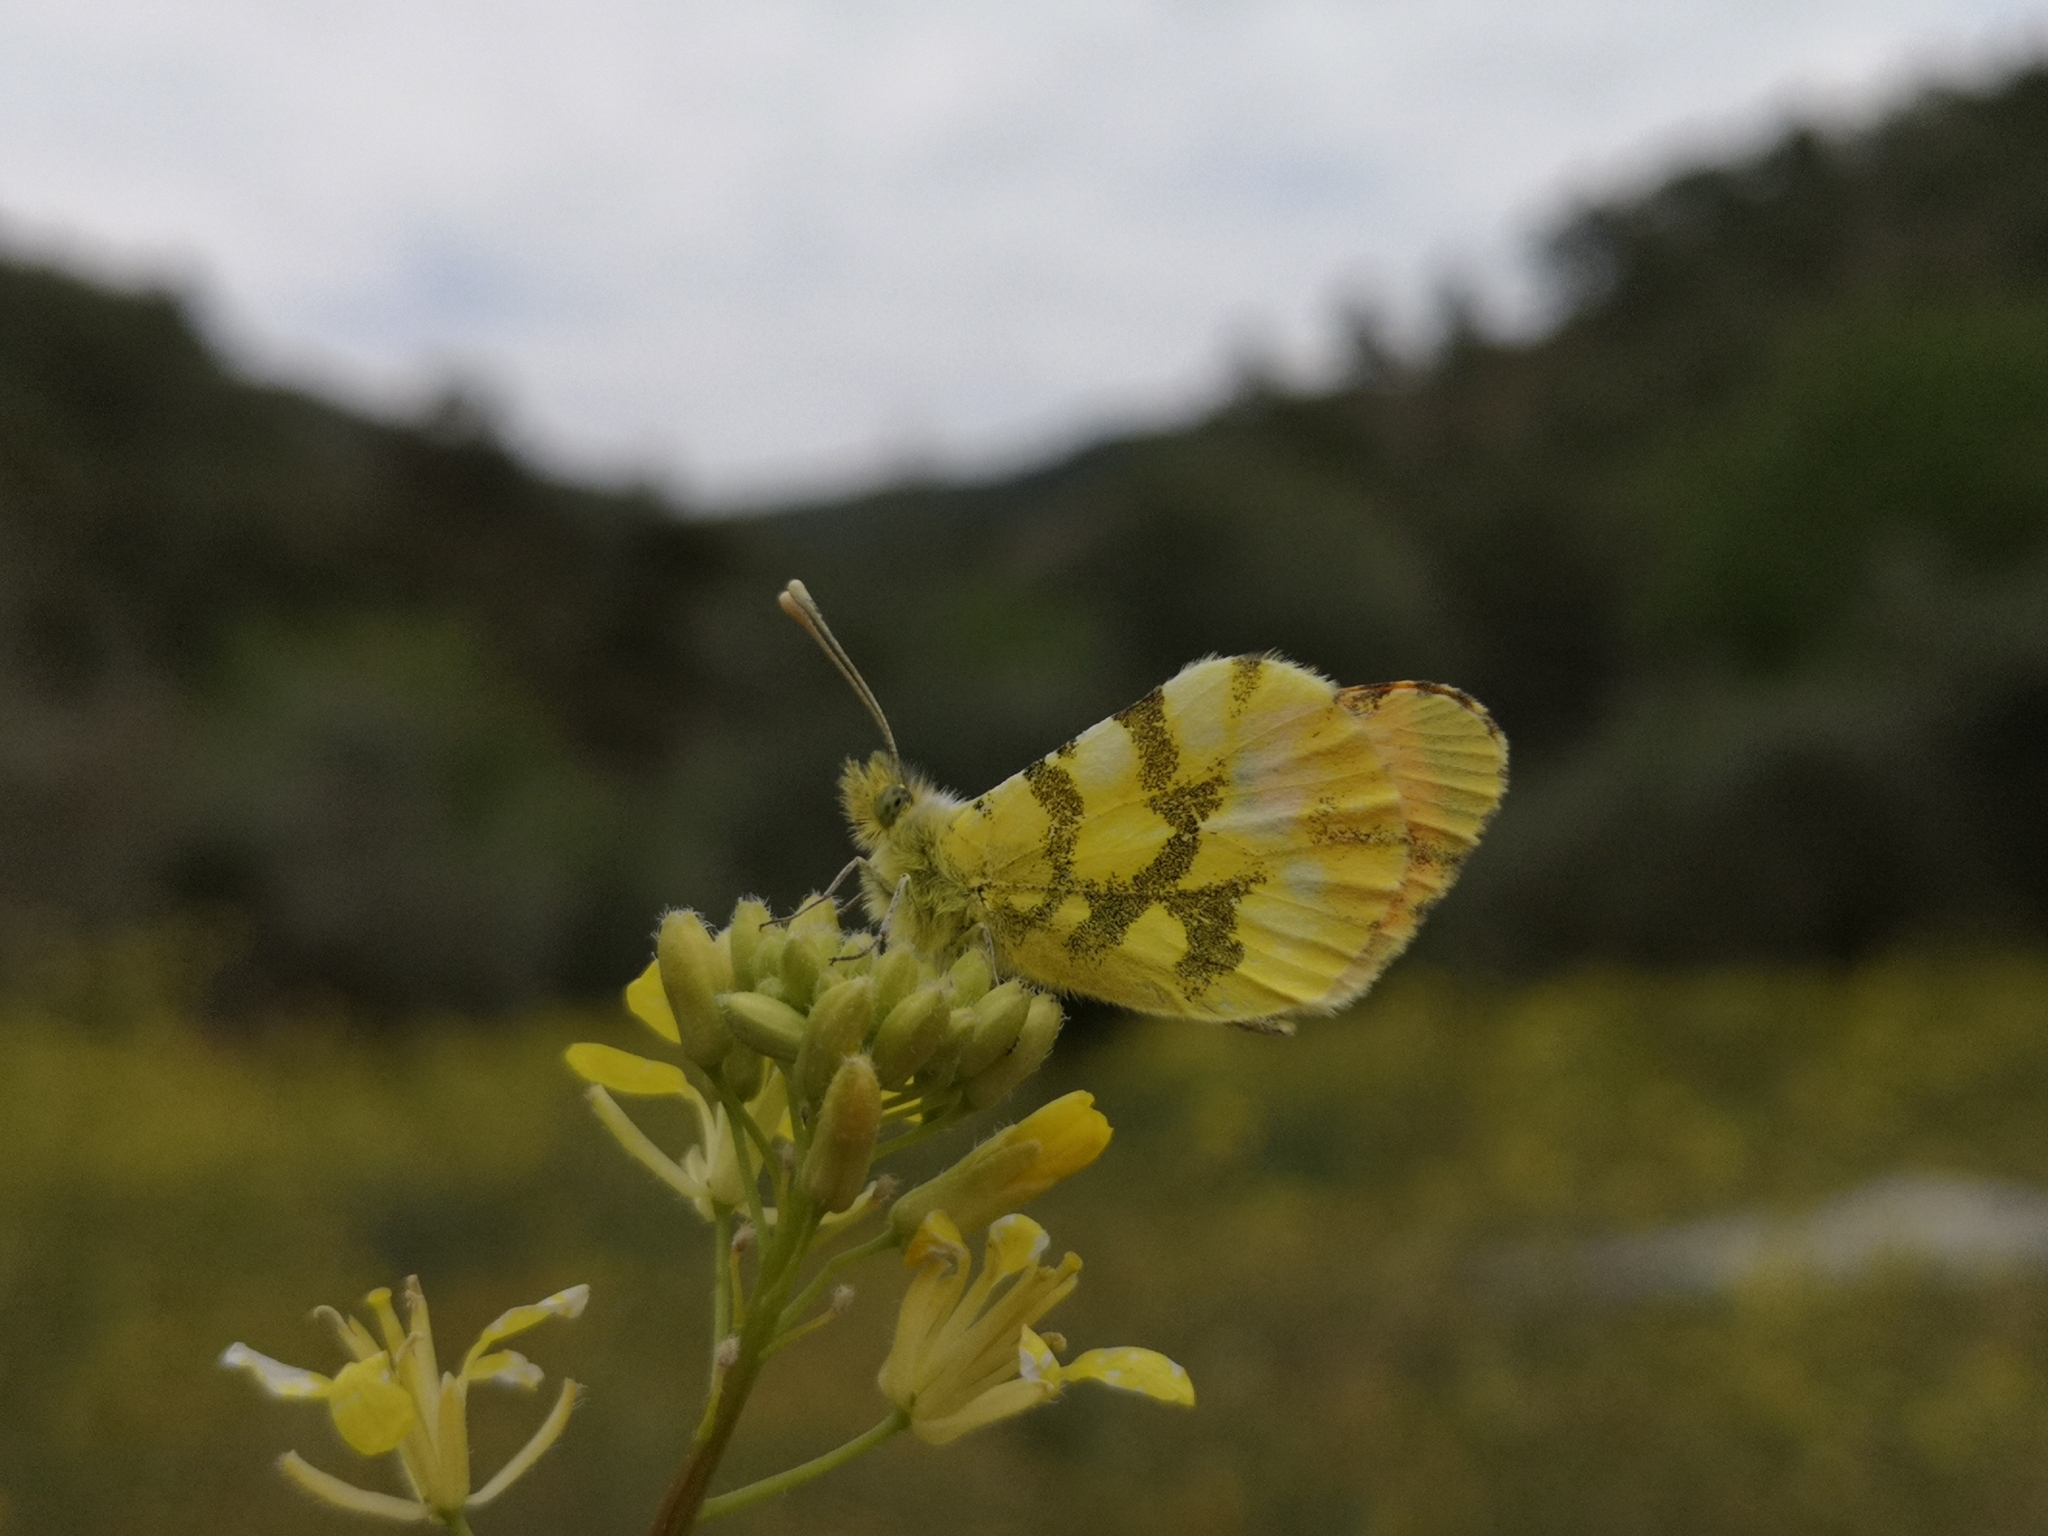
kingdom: Animalia
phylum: Arthropoda
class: Insecta
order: Lepidoptera
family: Pieridae
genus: Anthocharis
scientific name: Anthocharis euphenoides
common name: Provence orange-tip
